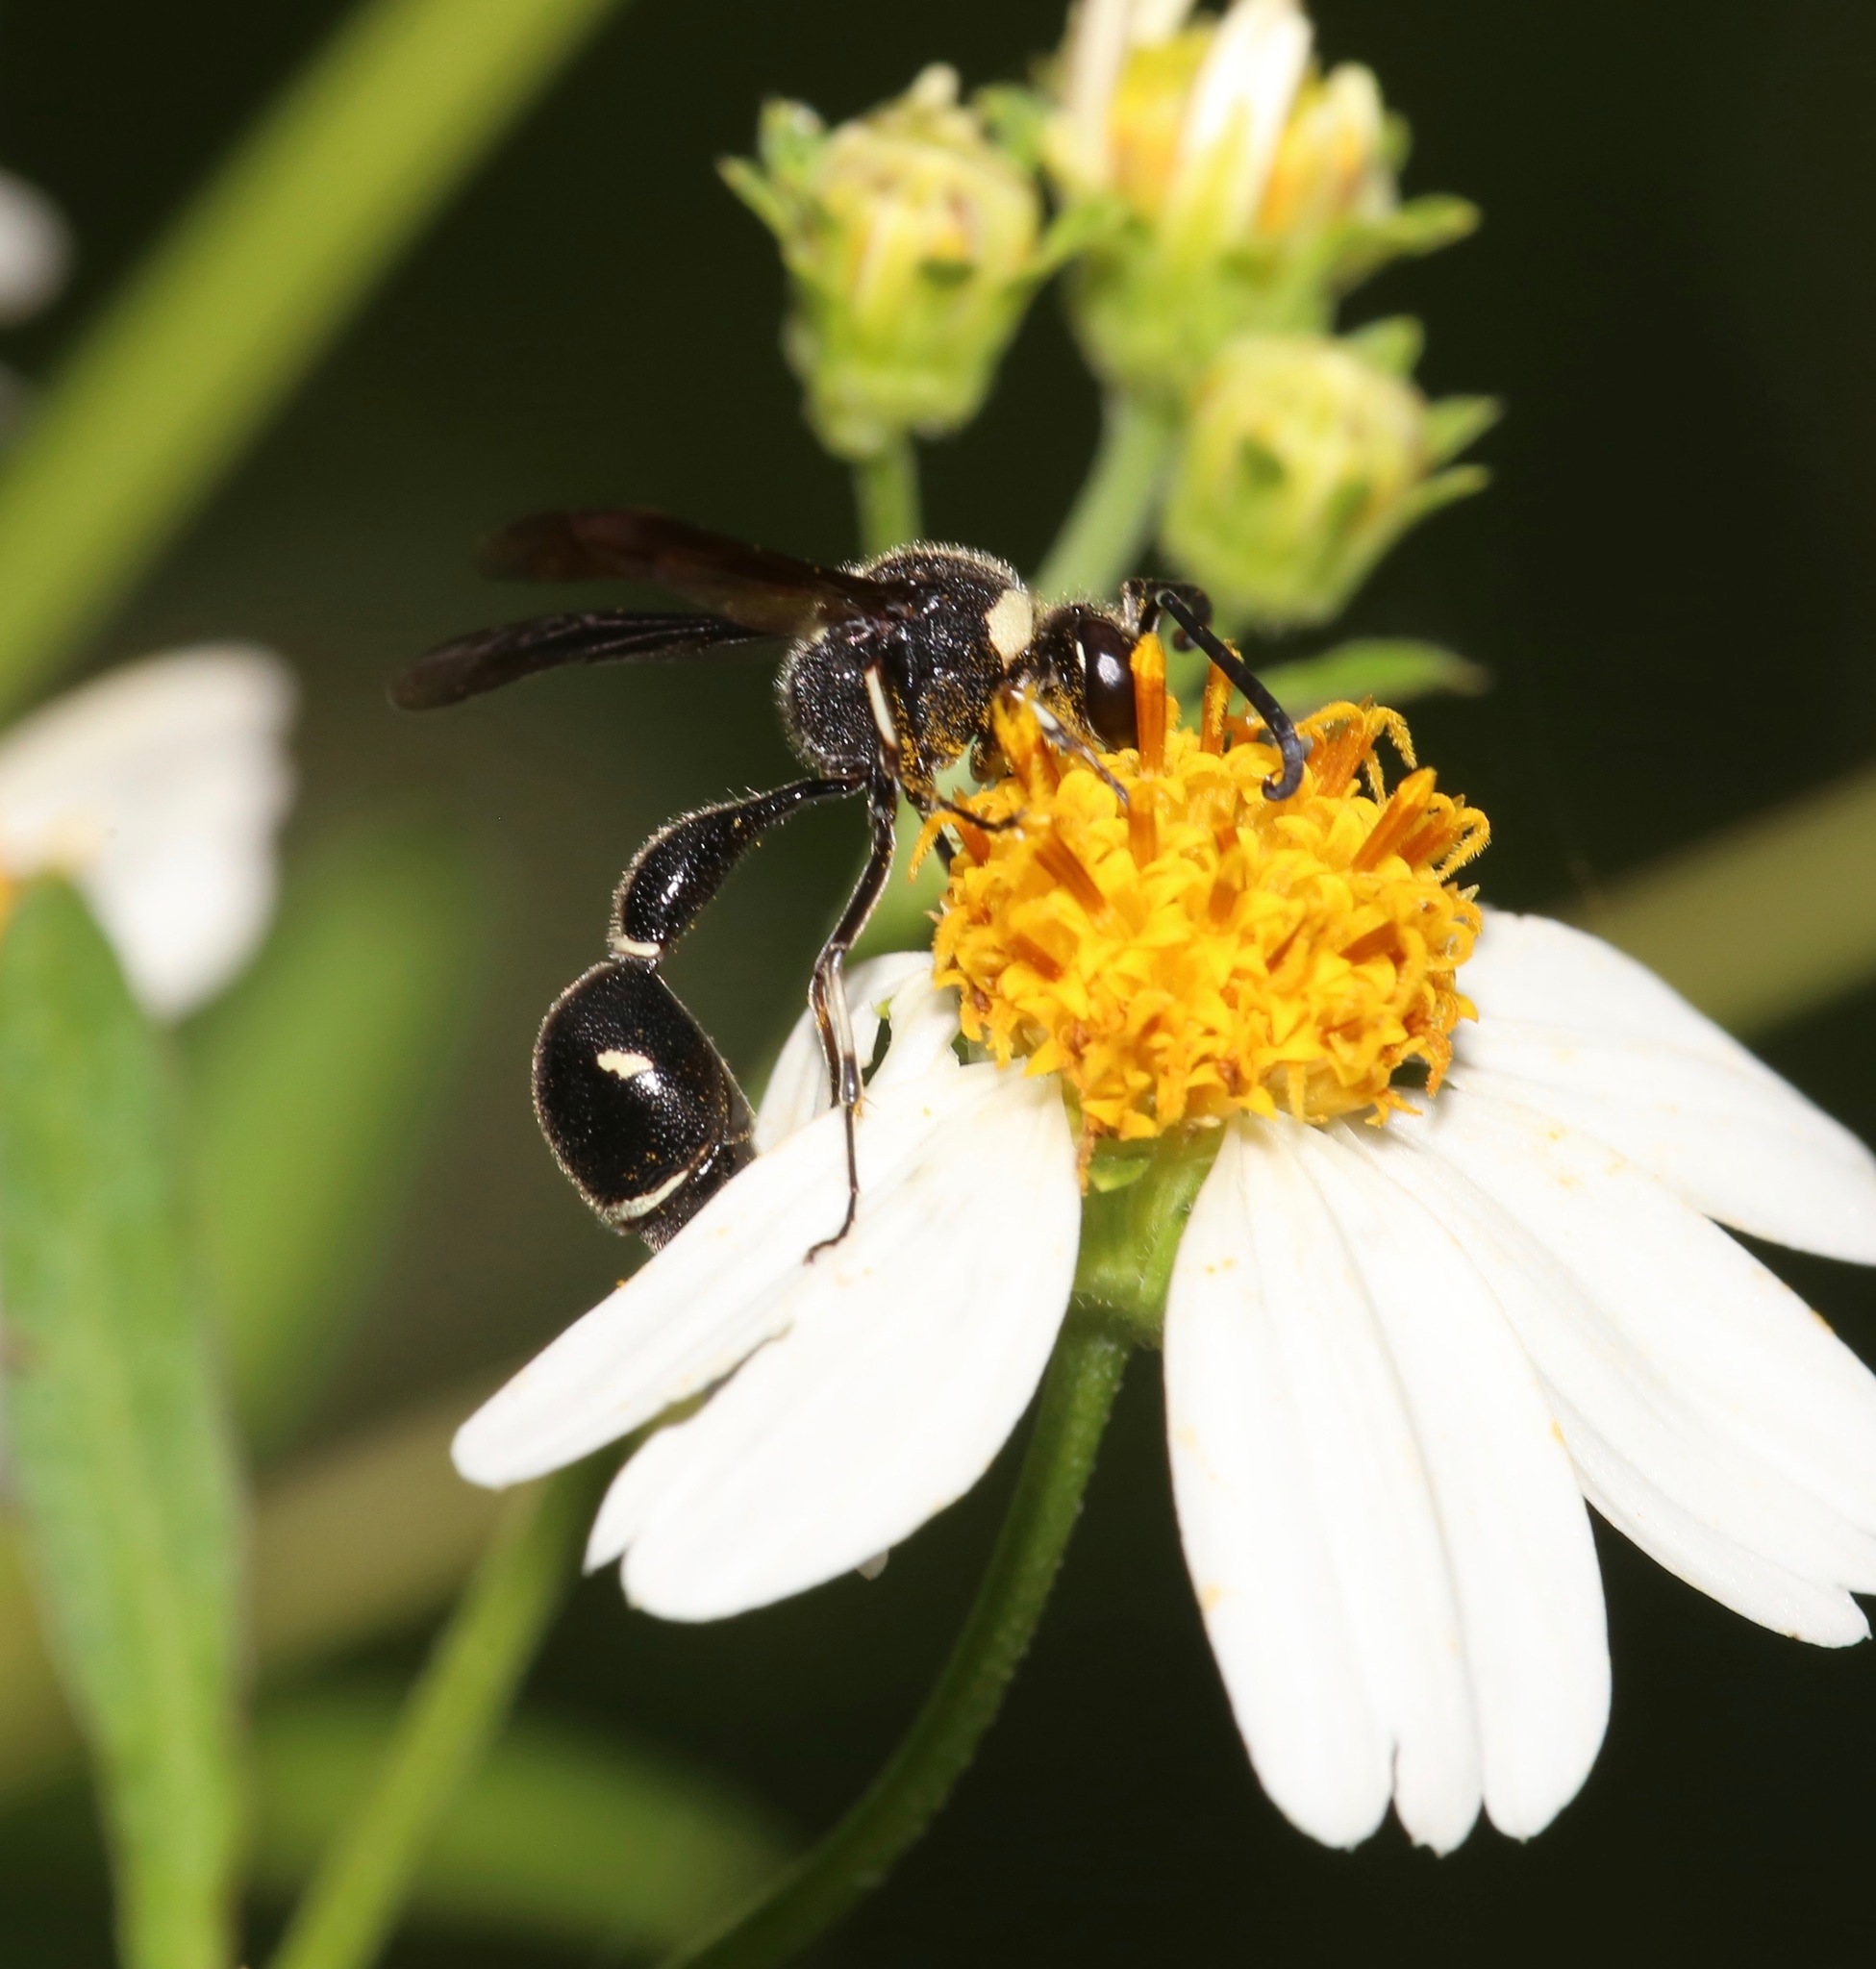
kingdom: Animalia
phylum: Arthropoda
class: Insecta
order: Hymenoptera
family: Vespidae
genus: Eumenes
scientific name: Eumenes fraternus
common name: Fraternal potter wasp
